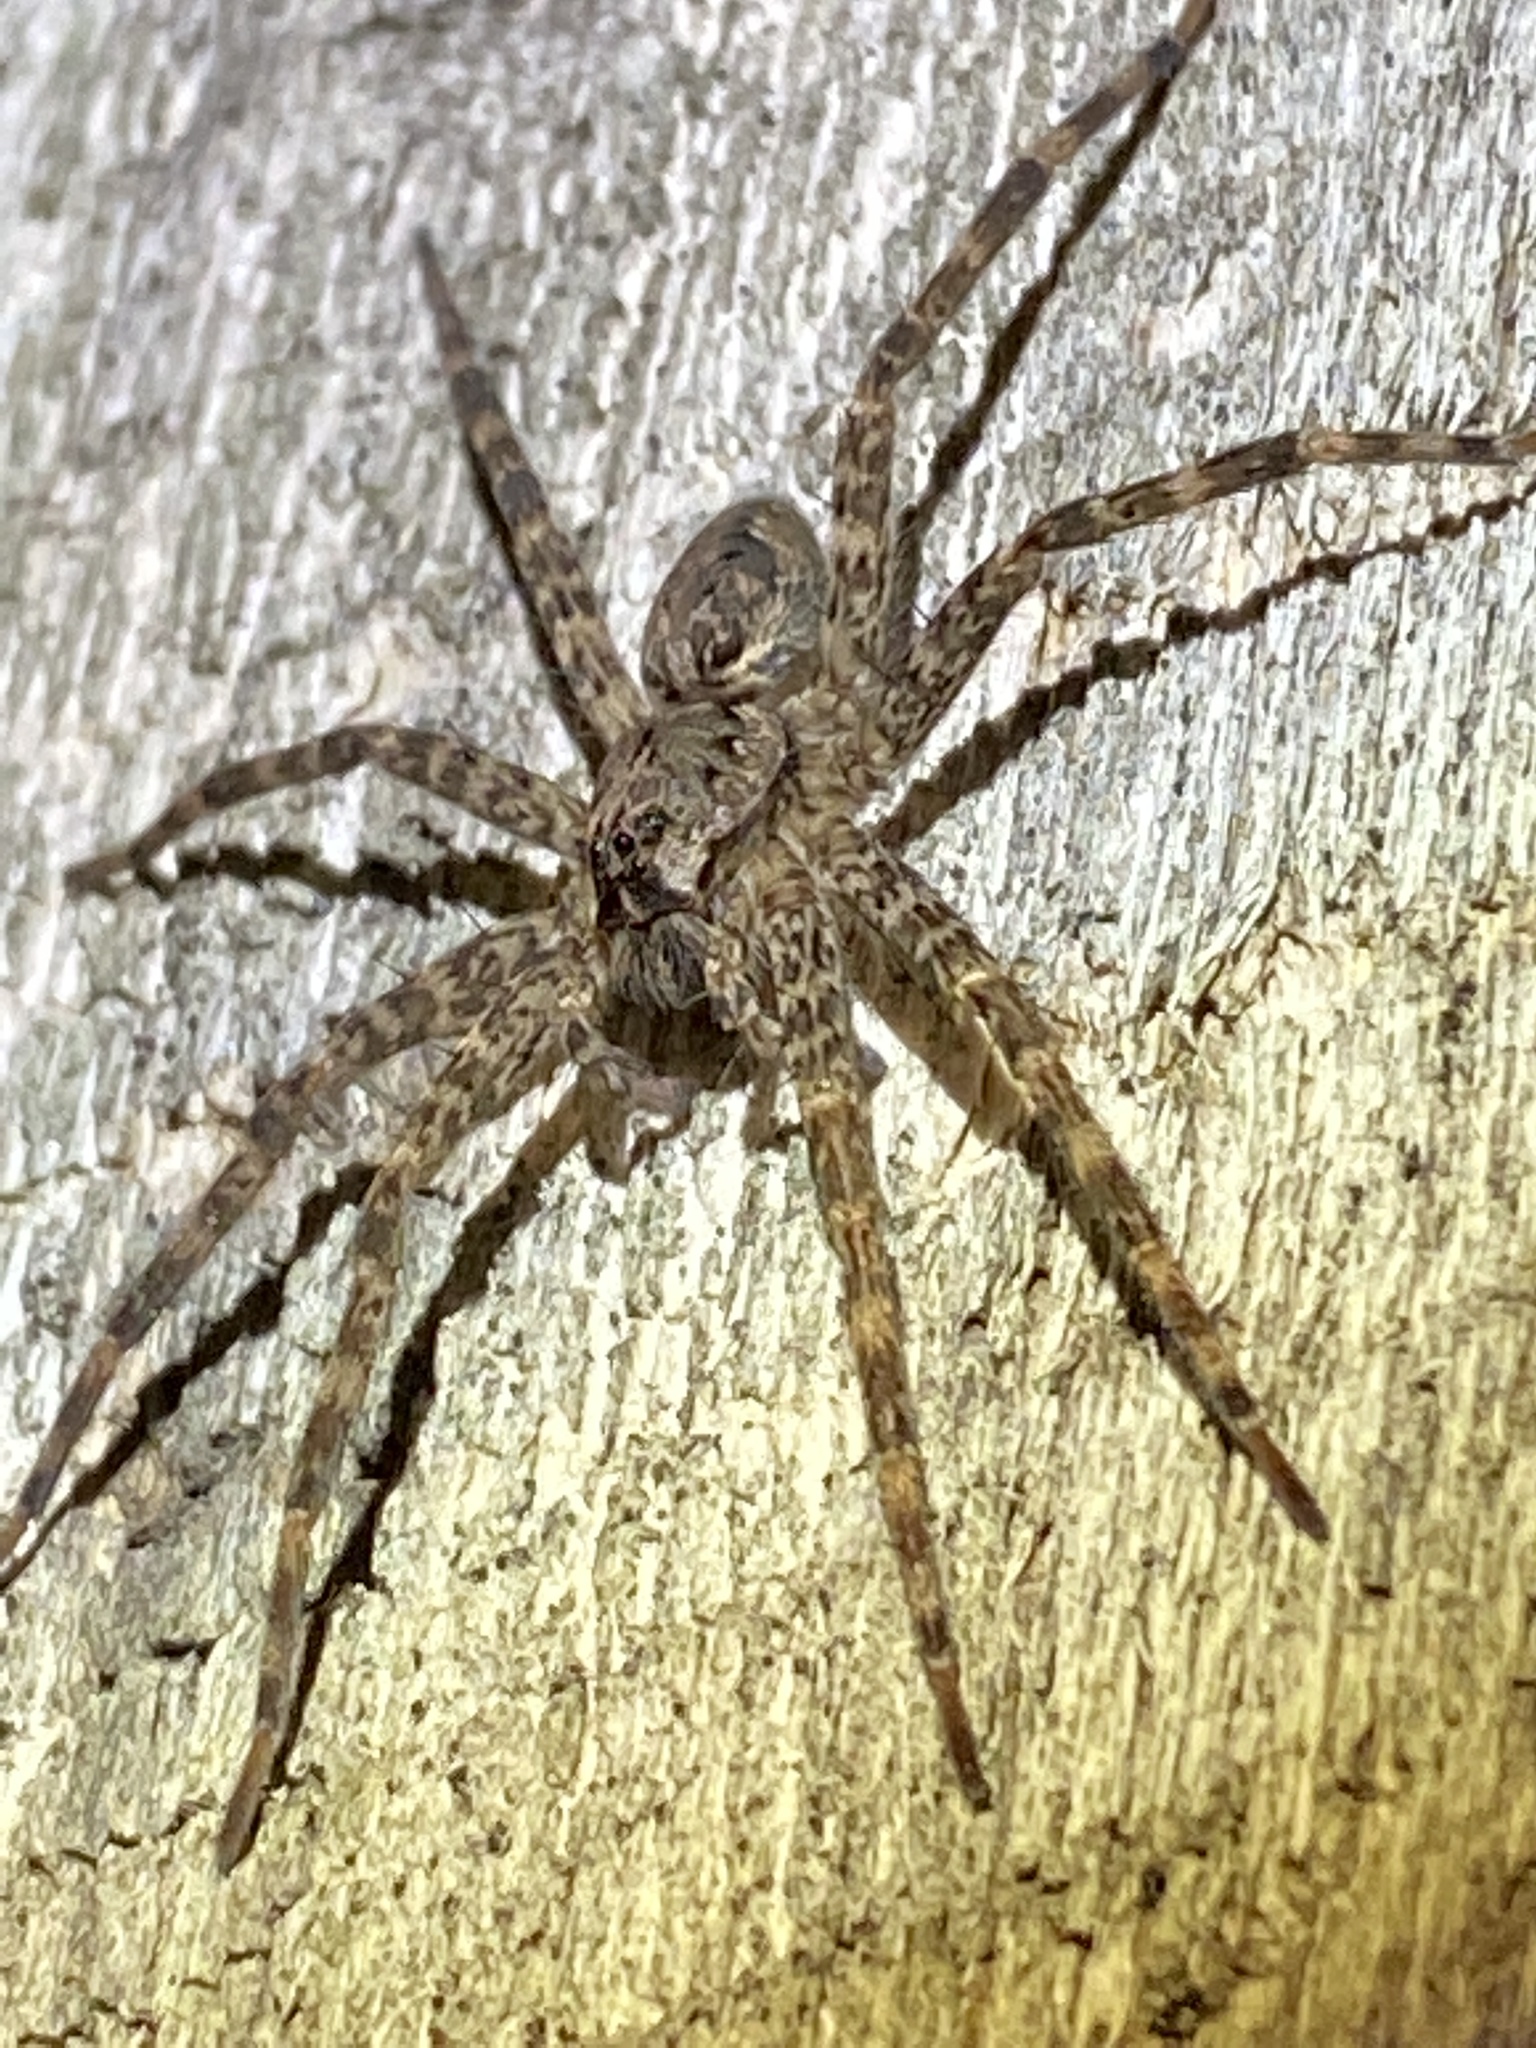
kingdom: Animalia
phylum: Arthropoda
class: Arachnida
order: Araneae
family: Pisauridae
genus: Dolomedes
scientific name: Dolomedes tenebrosus
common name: Dark fishing spider
